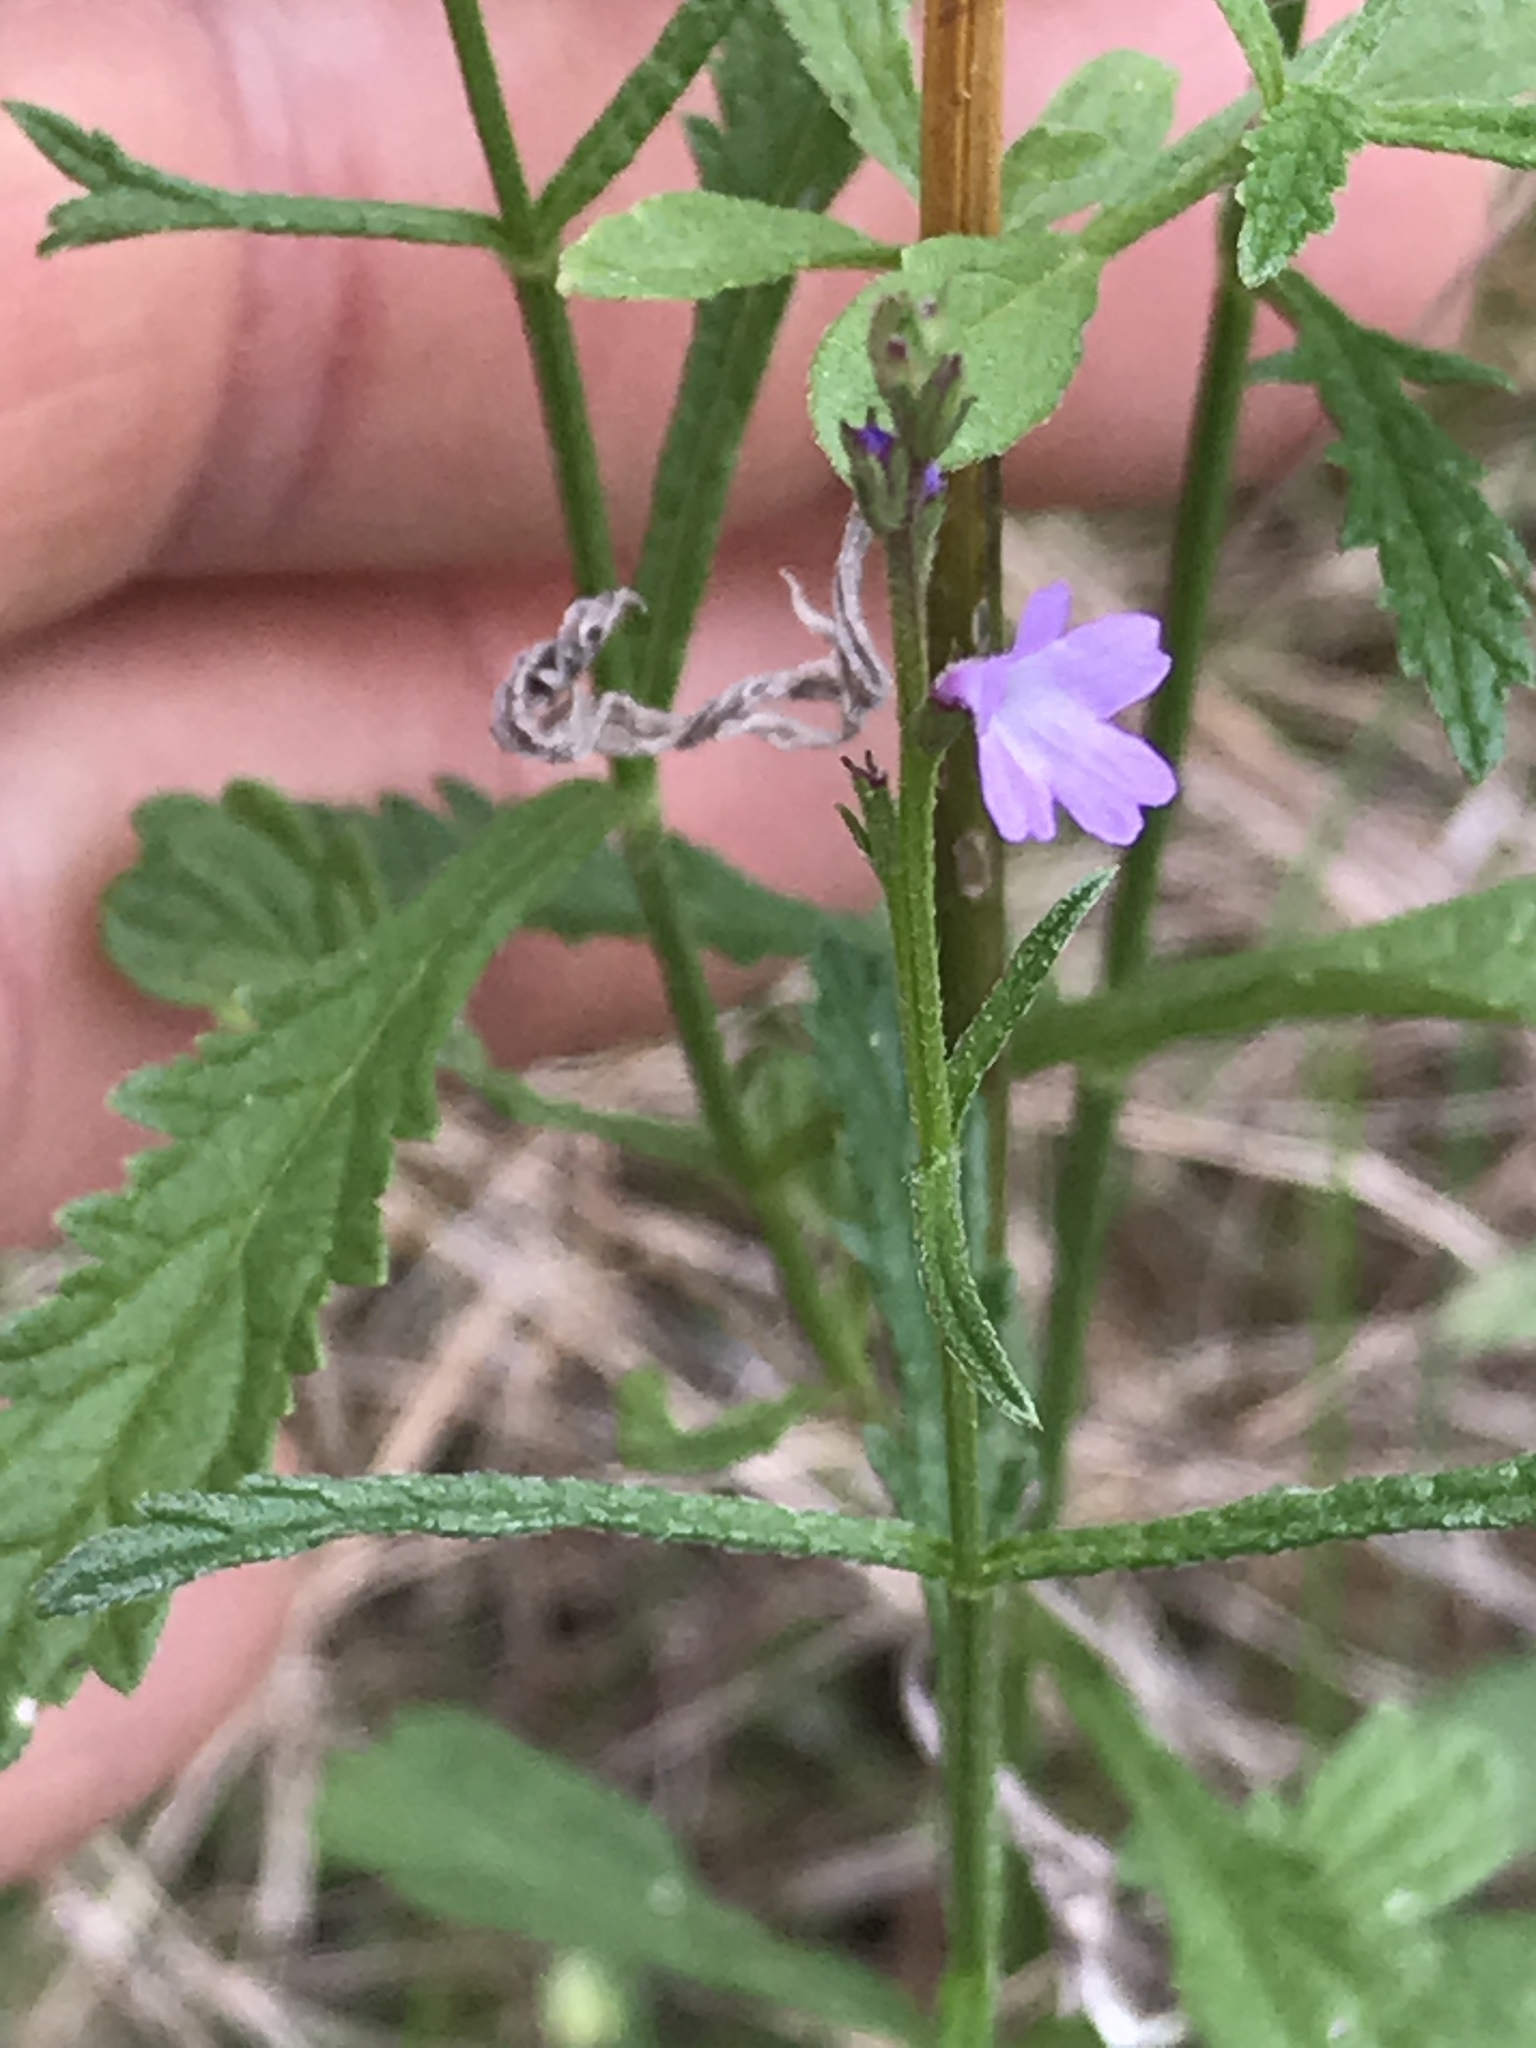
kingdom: Plantae
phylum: Tracheophyta
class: Magnoliopsida
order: Lamiales
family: Verbenaceae
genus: Verbena
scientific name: Verbena halei
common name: Texas vervain
